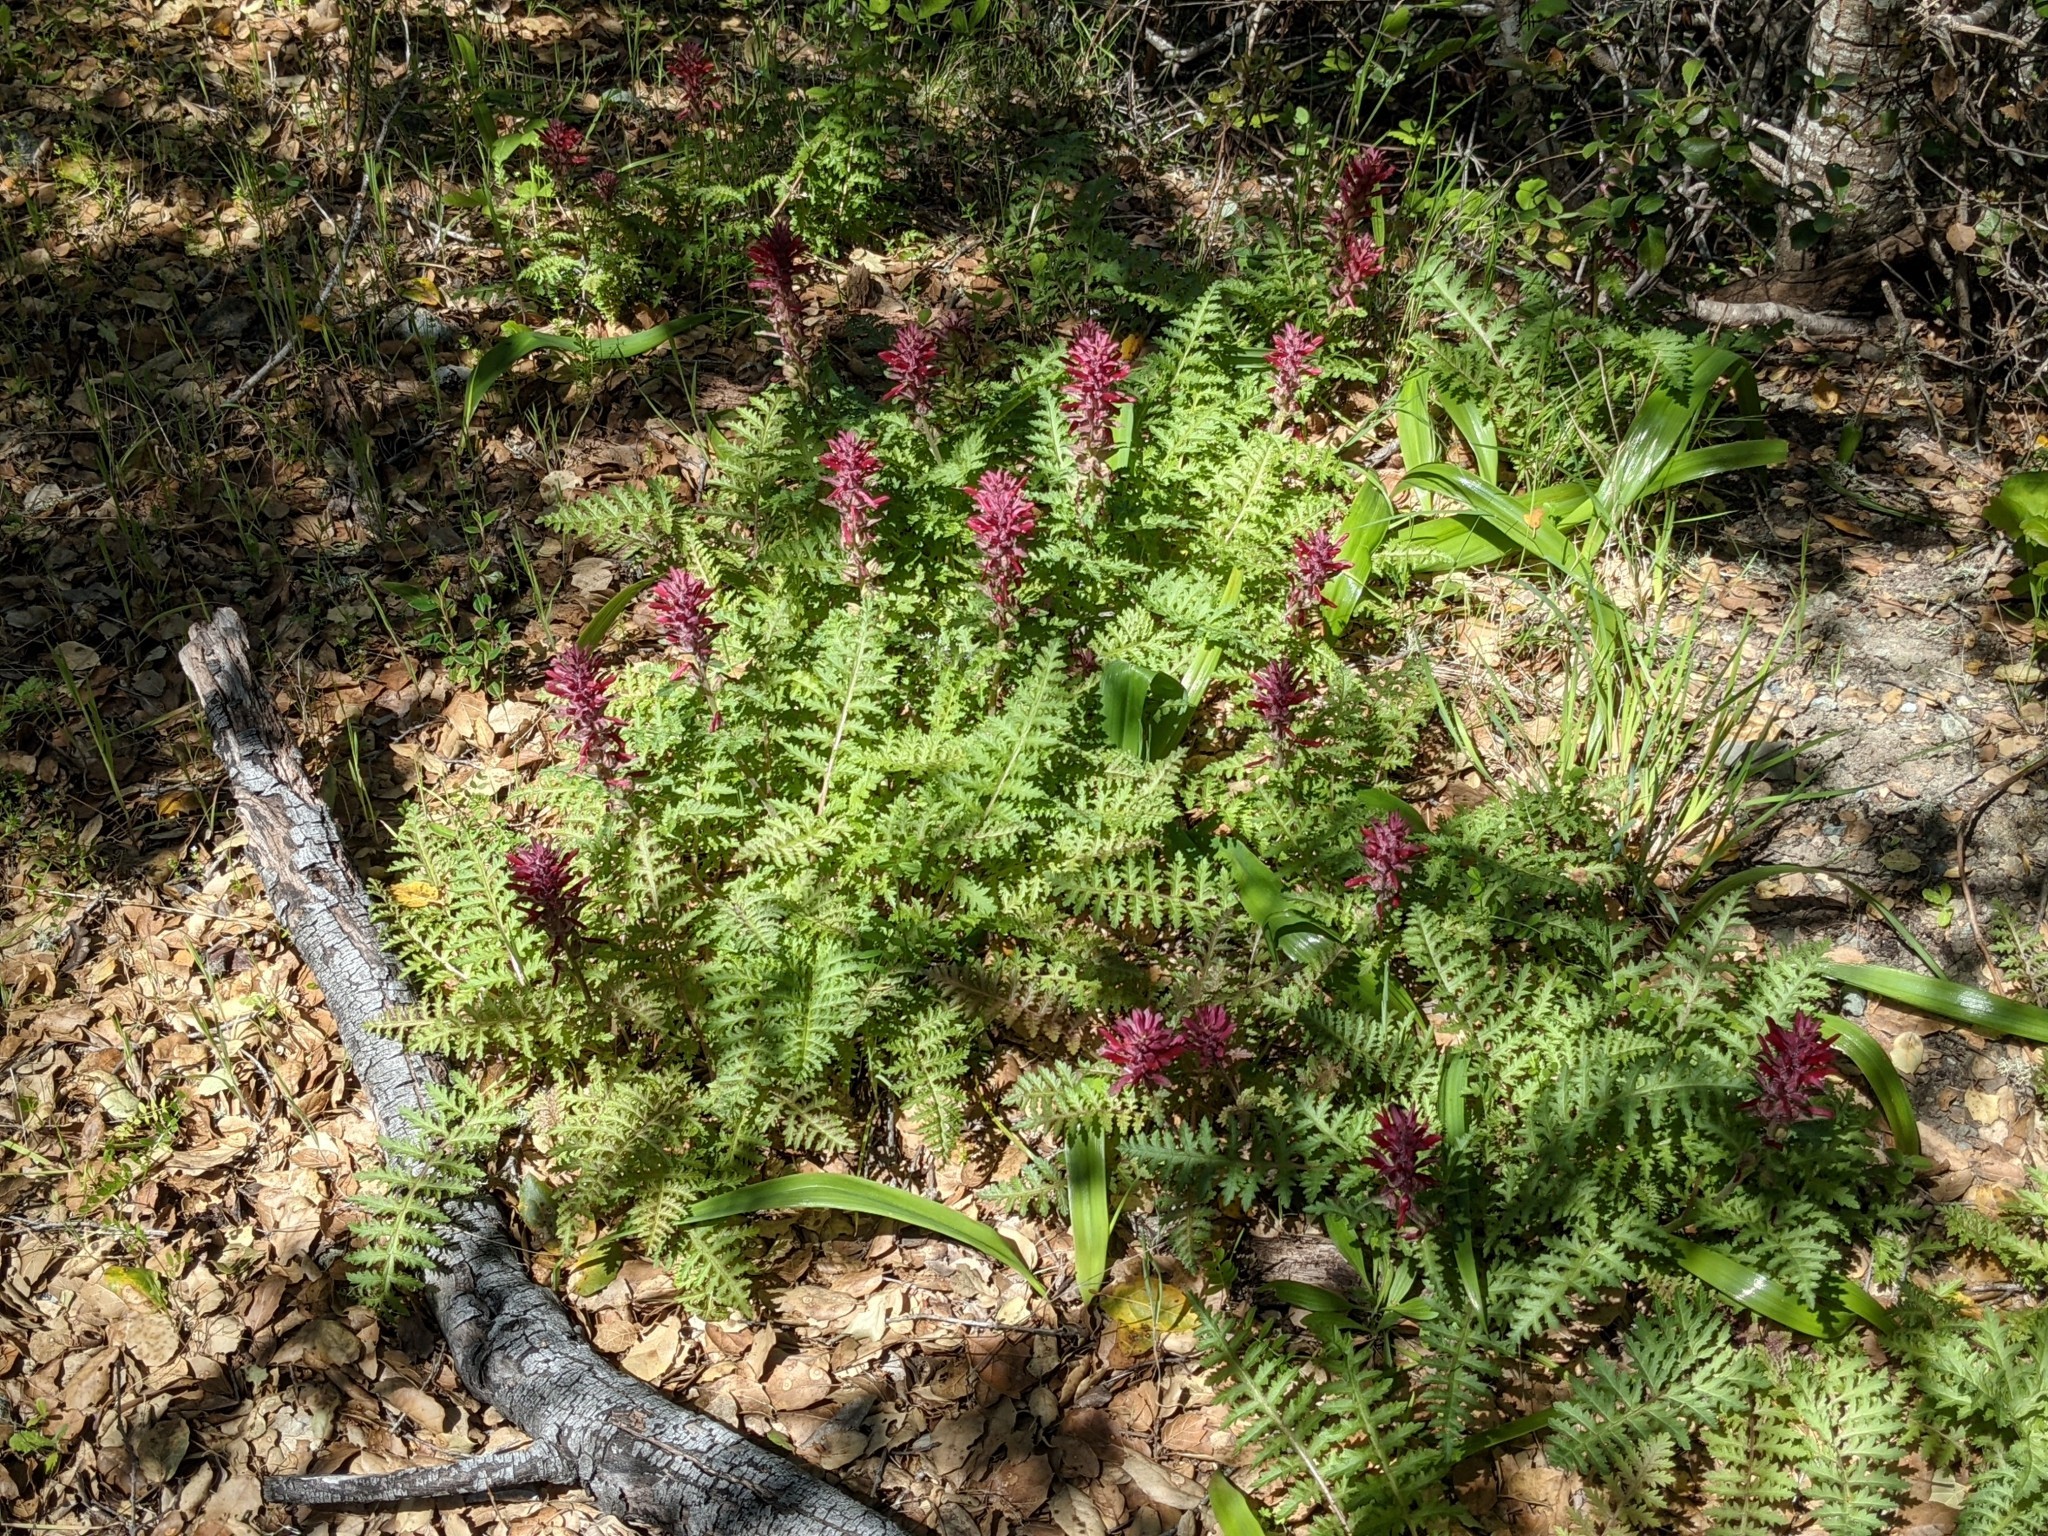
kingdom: Plantae
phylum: Tracheophyta
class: Magnoliopsida
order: Lamiales
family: Orobanchaceae
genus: Pedicularis
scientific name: Pedicularis densiflora
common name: Indian warrior
